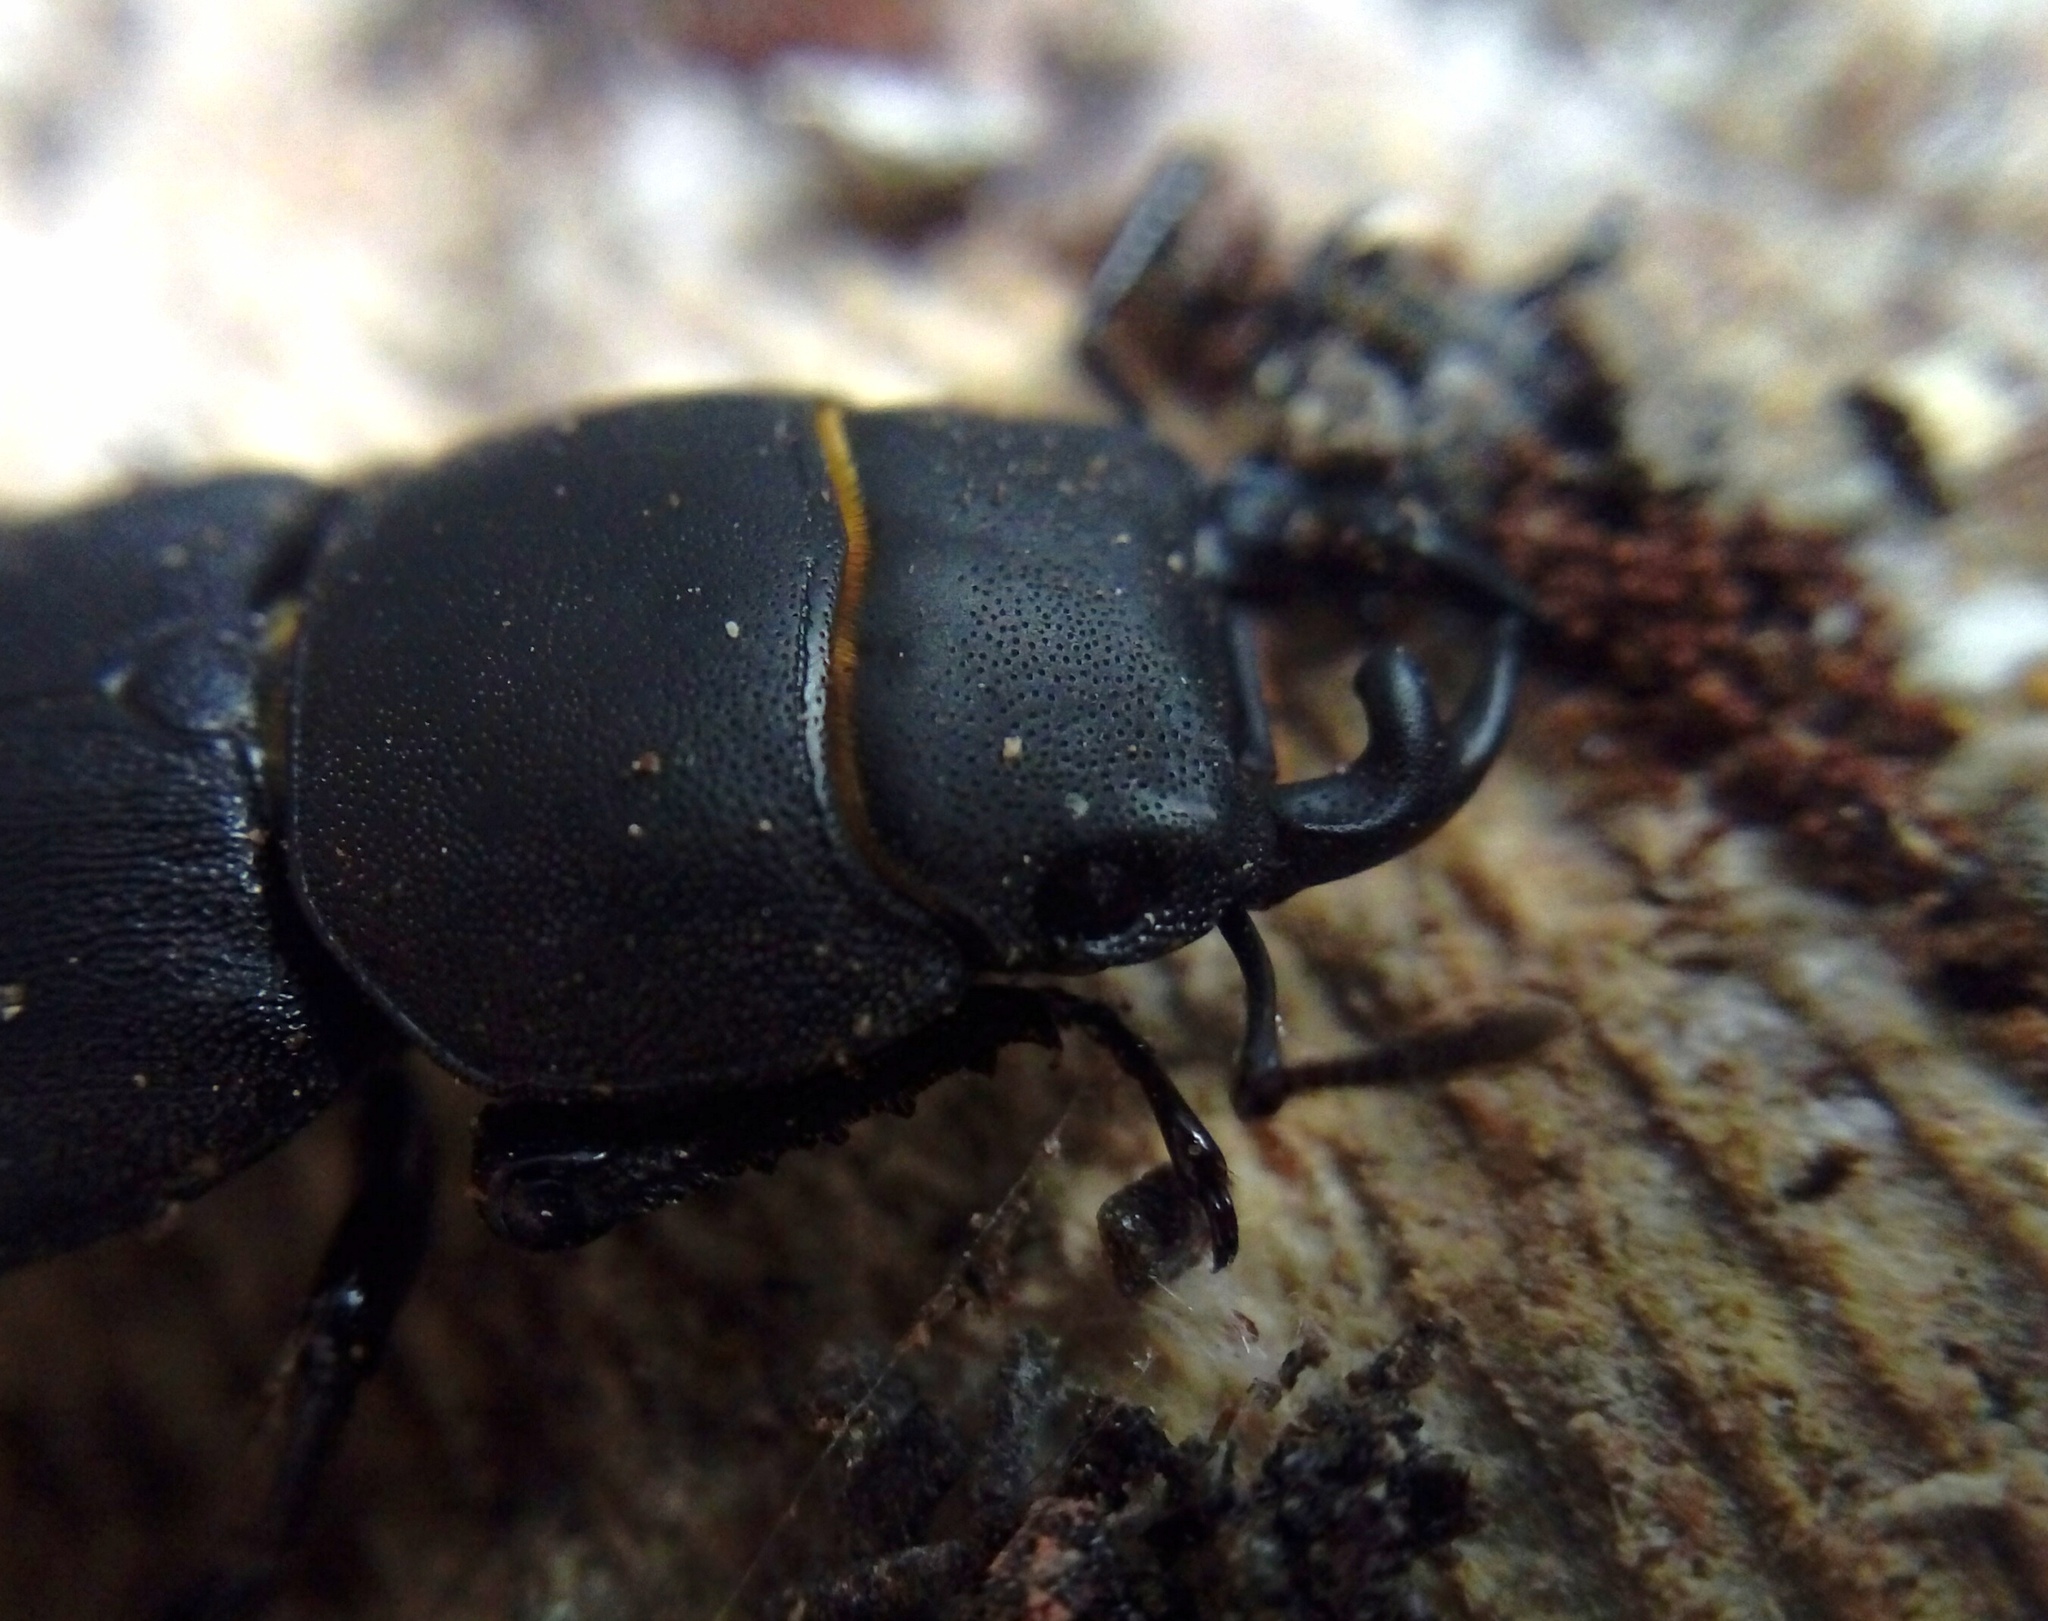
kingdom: Animalia
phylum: Arthropoda
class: Insecta
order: Coleoptera
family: Lucanidae
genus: Dorcus
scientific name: Dorcus parallelipipedus
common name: Lesser stag beetle
